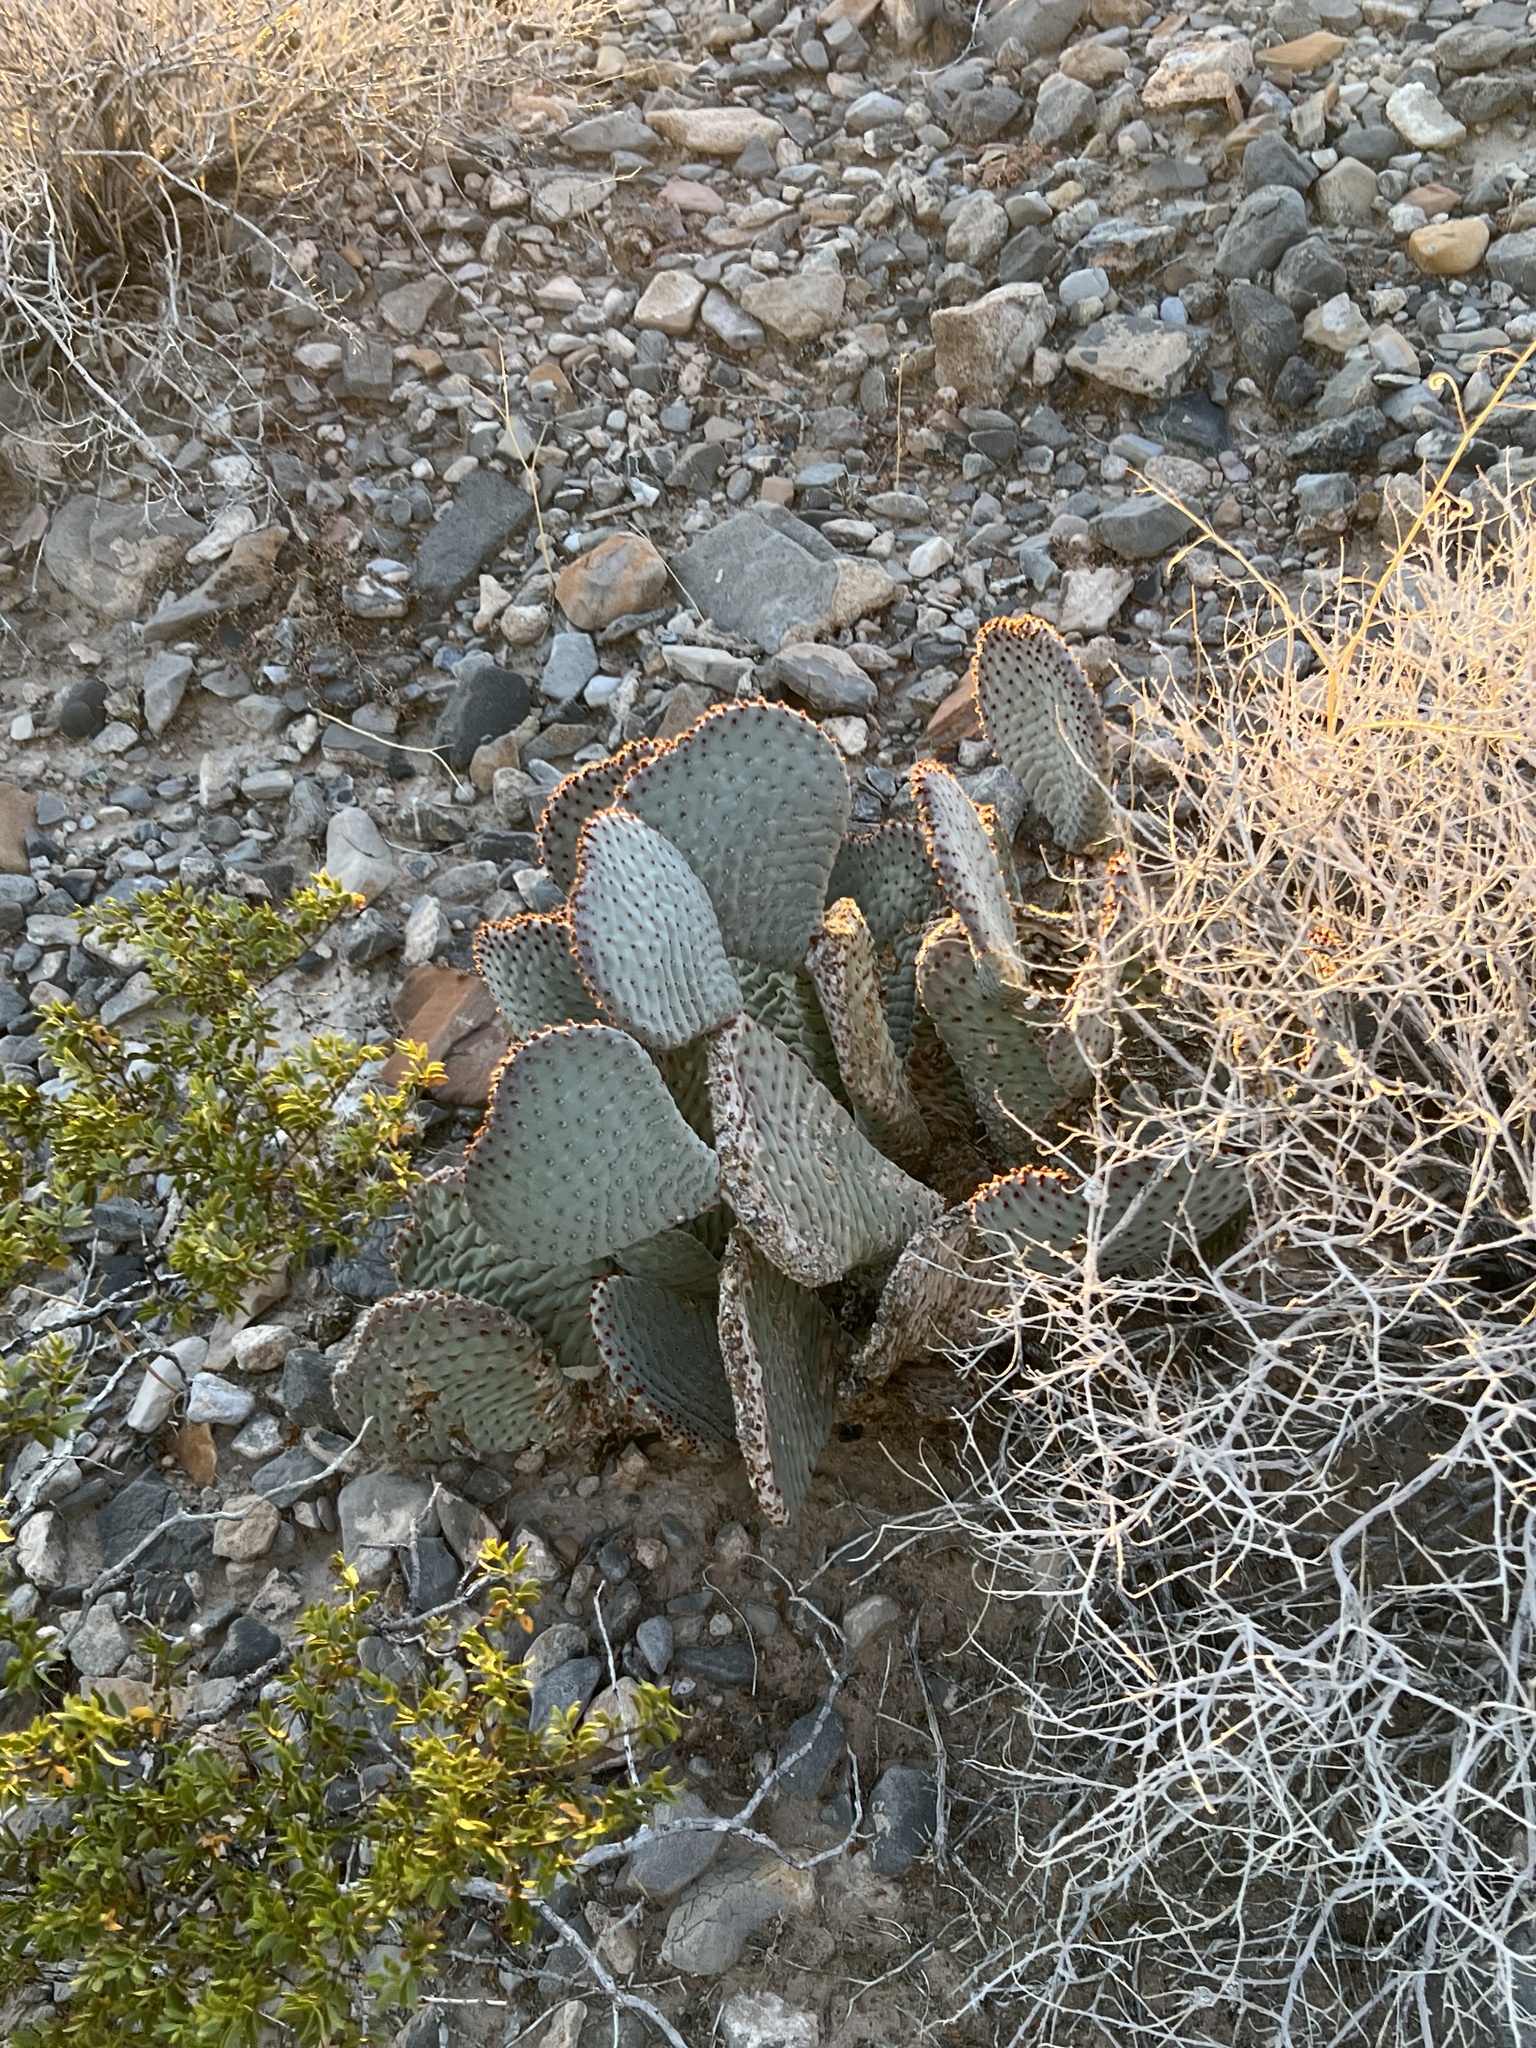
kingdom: Plantae
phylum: Tracheophyta
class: Magnoliopsida
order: Caryophyllales
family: Cactaceae
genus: Opuntia
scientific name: Opuntia basilaris
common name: Beavertail prickly-pear
